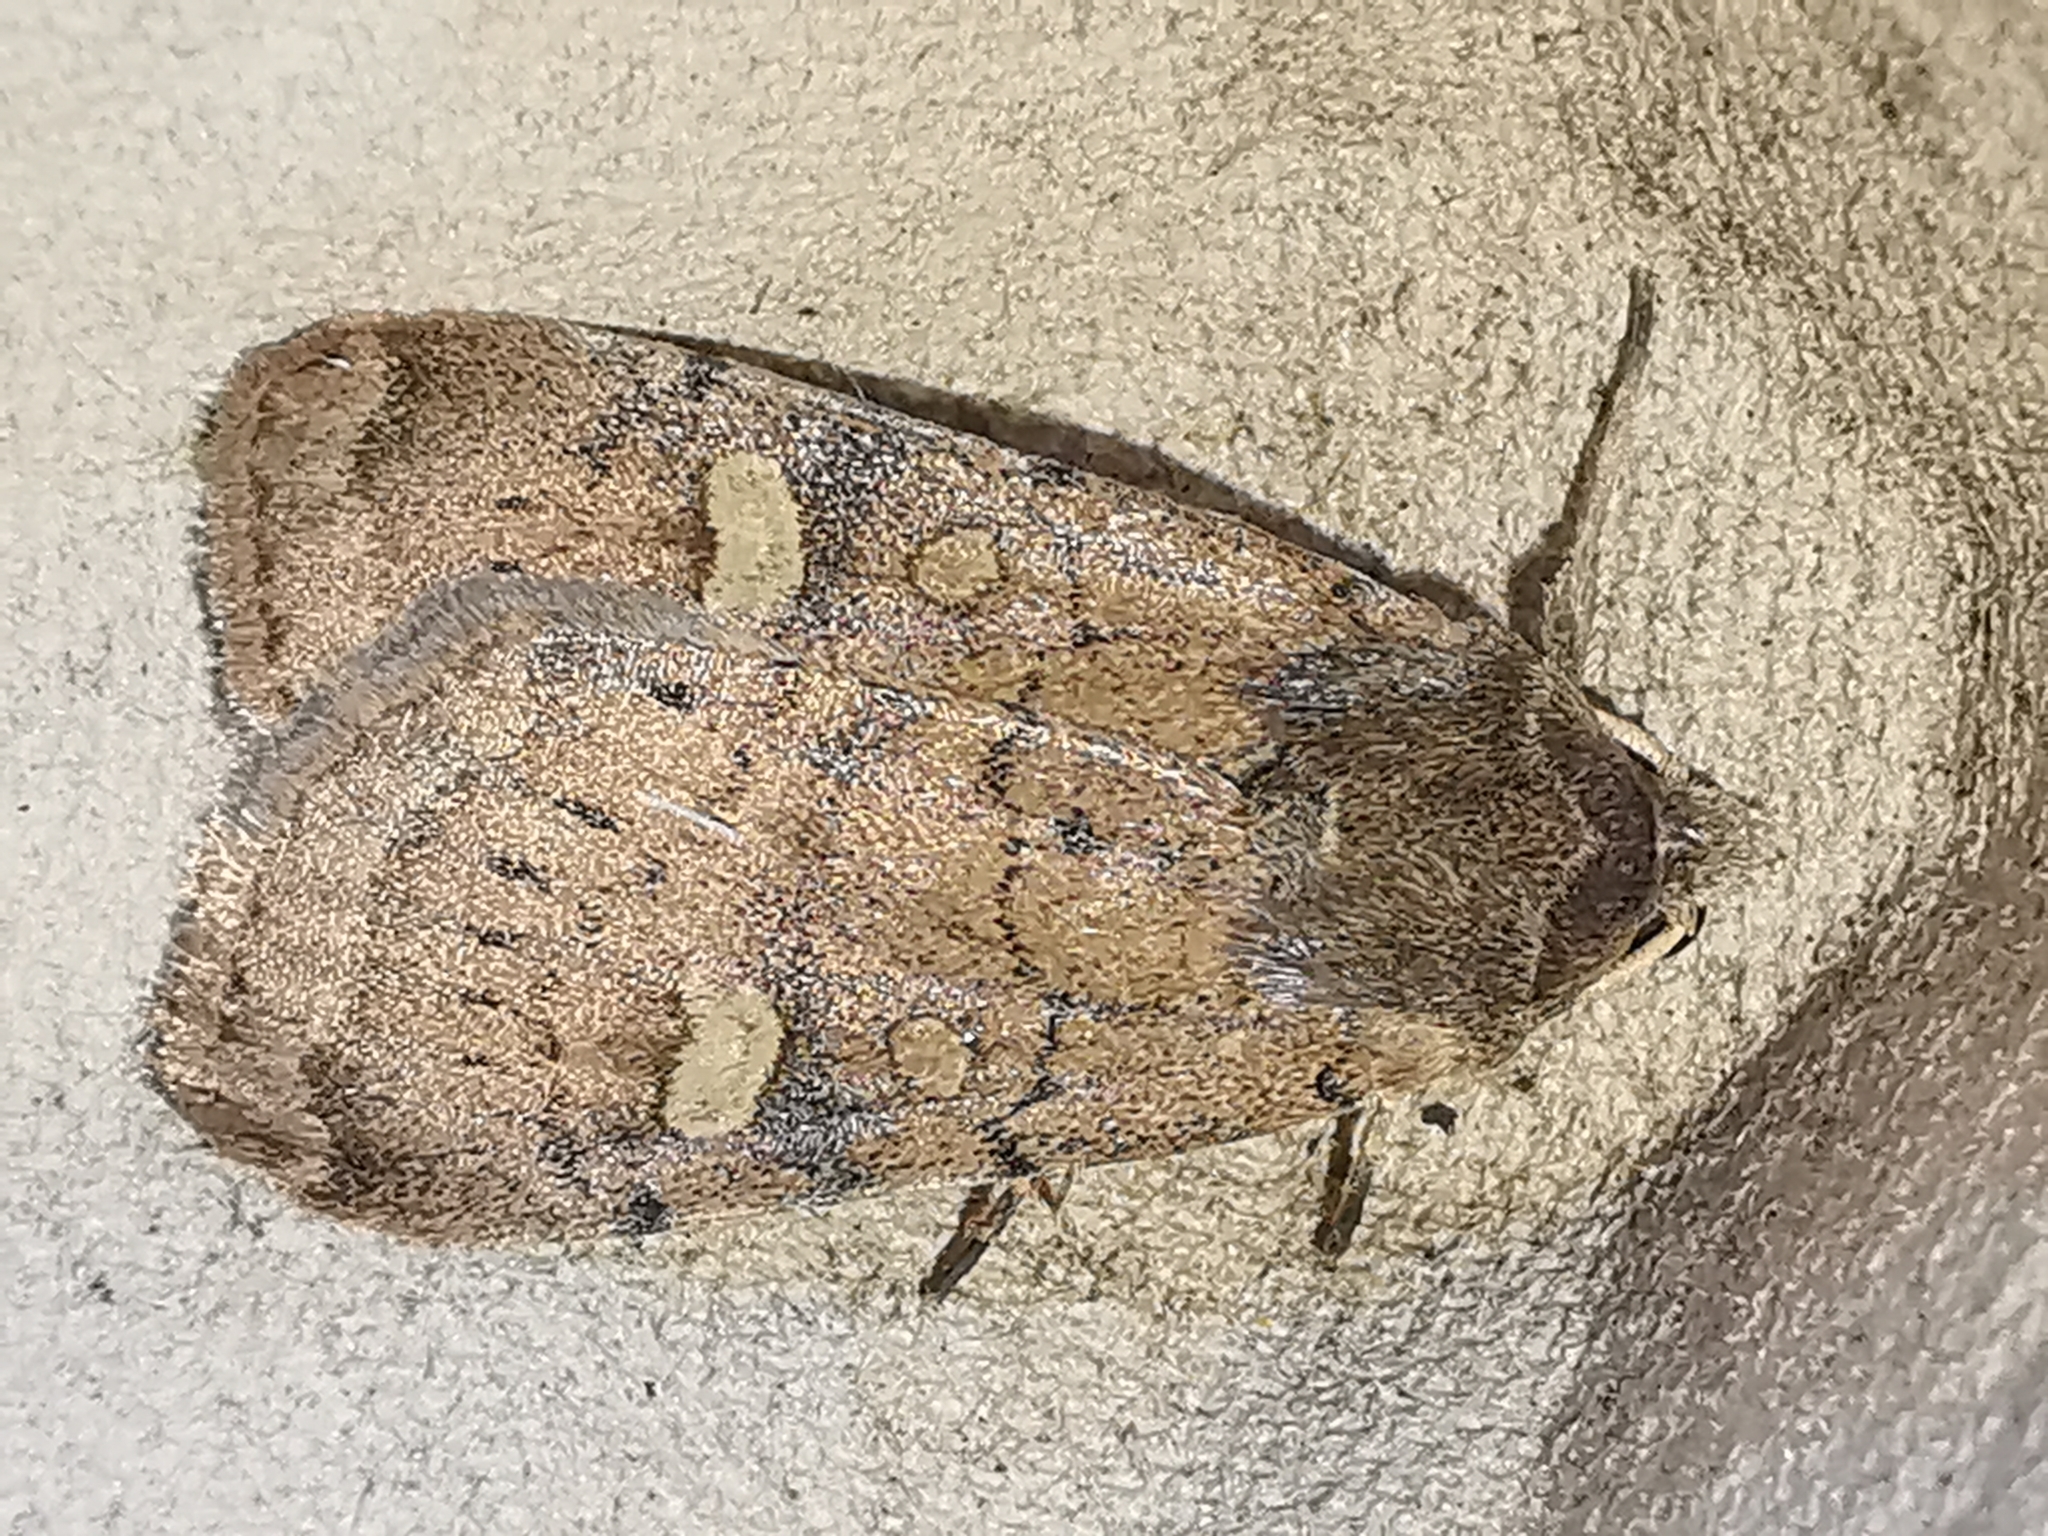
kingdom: Animalia
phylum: Arthropoda
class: Insecta
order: Lepidoptera
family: Noctuidae
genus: Xestia
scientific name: Xestia xanthographa
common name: Square-spot rustic
